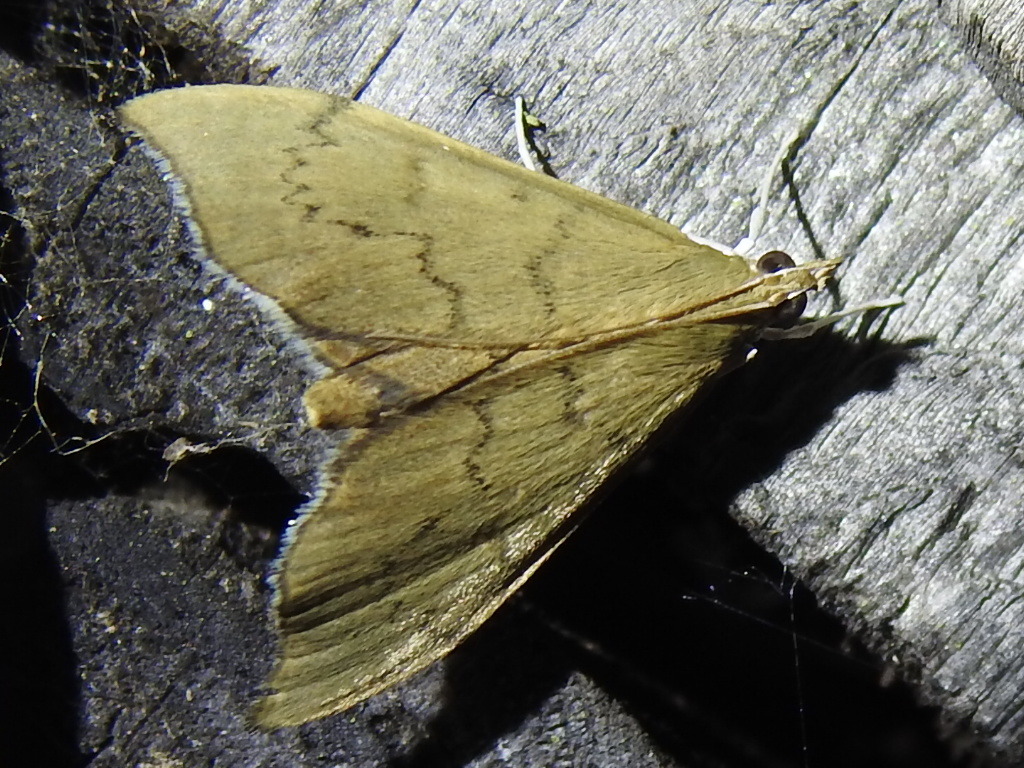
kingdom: Animalia
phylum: Arthropoda
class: Insecta
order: Lepidoptera
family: Crambidae
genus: Sericoplaga
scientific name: Sericoplaga externalis
